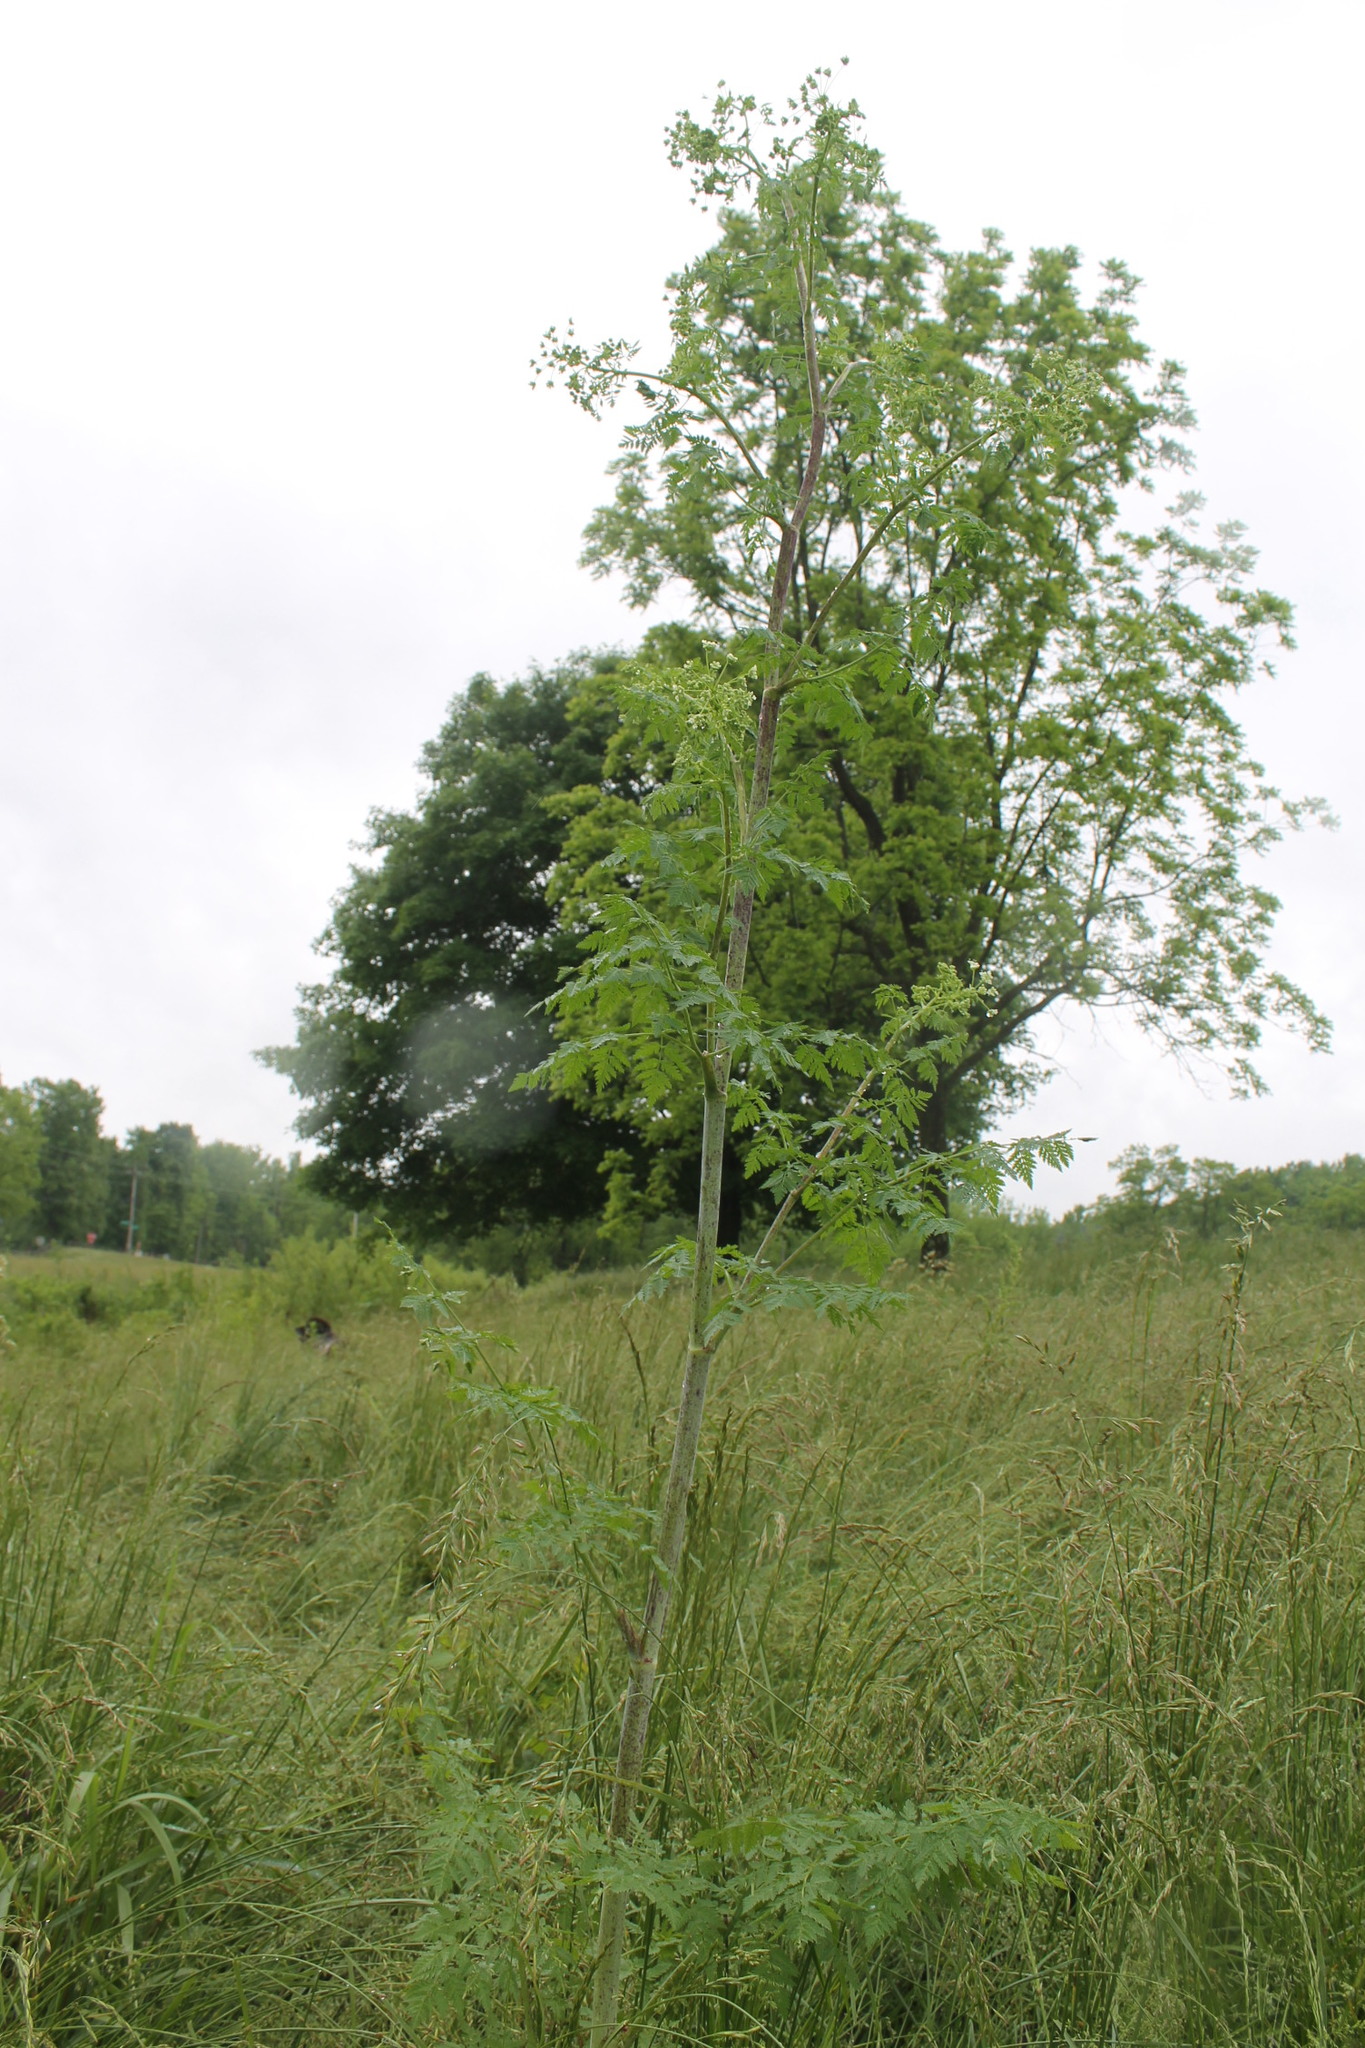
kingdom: Plantae
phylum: Tracheophyta
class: Magnoliopsida
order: Apiales
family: Apiaceae
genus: Conium
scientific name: Conium maculatum
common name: Hemlock
